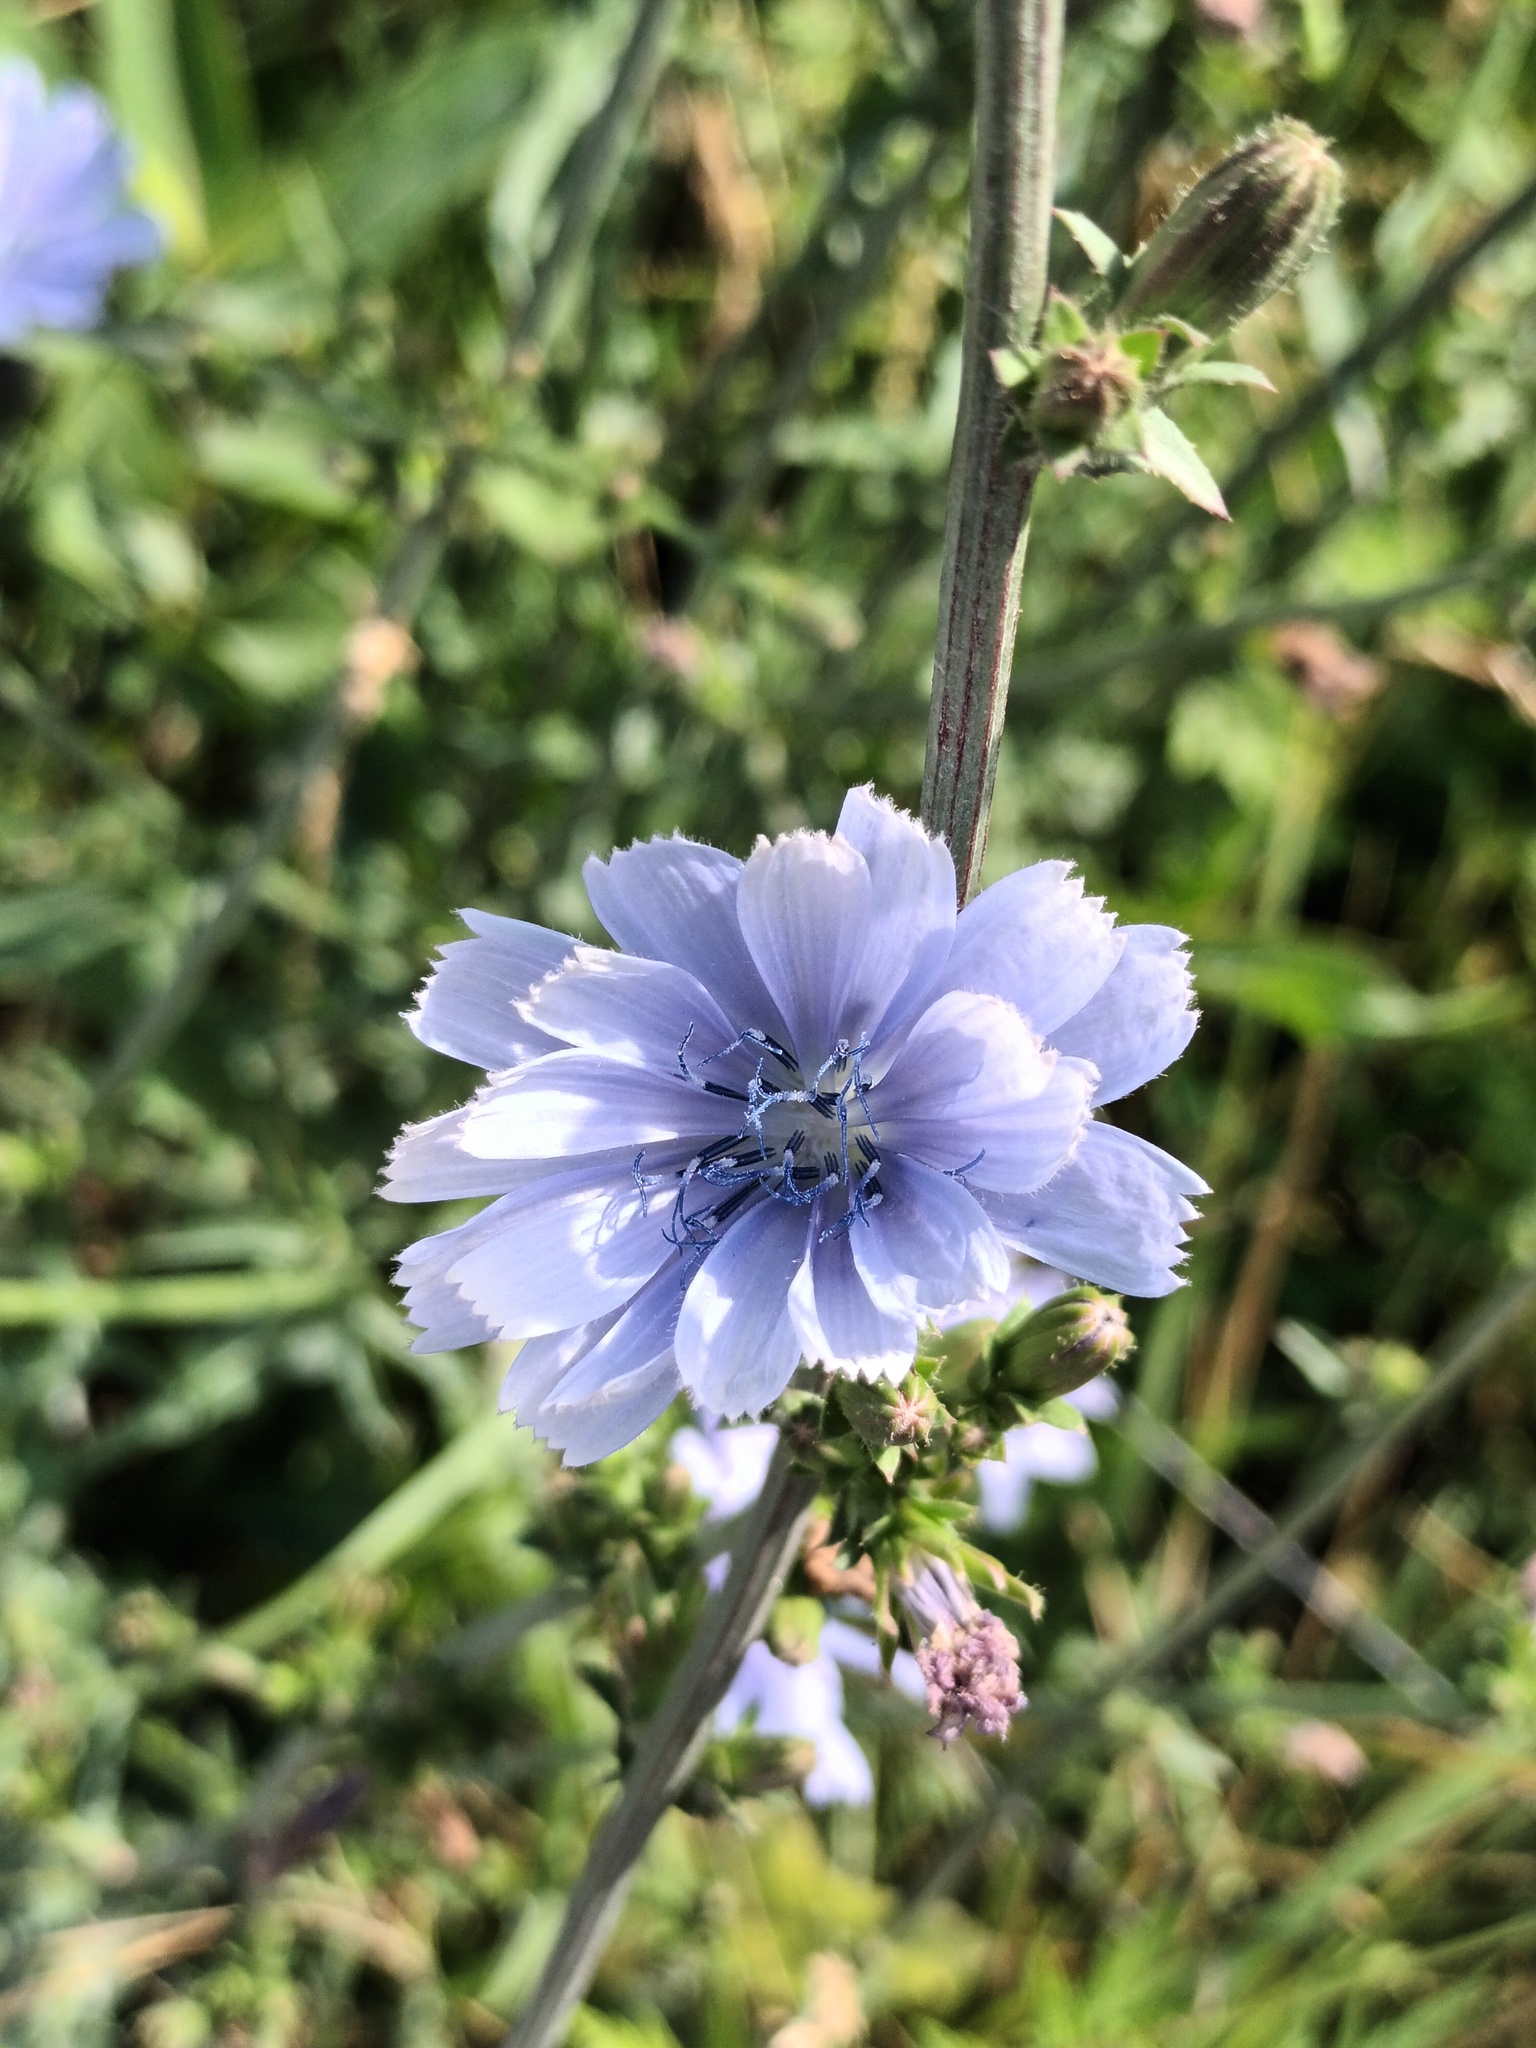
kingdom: Plantae
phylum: Tracheophyta
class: Magnoliopsida
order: Asterales
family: Asteraceae
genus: Cichorium
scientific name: Cichorium intybus
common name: Chicory
